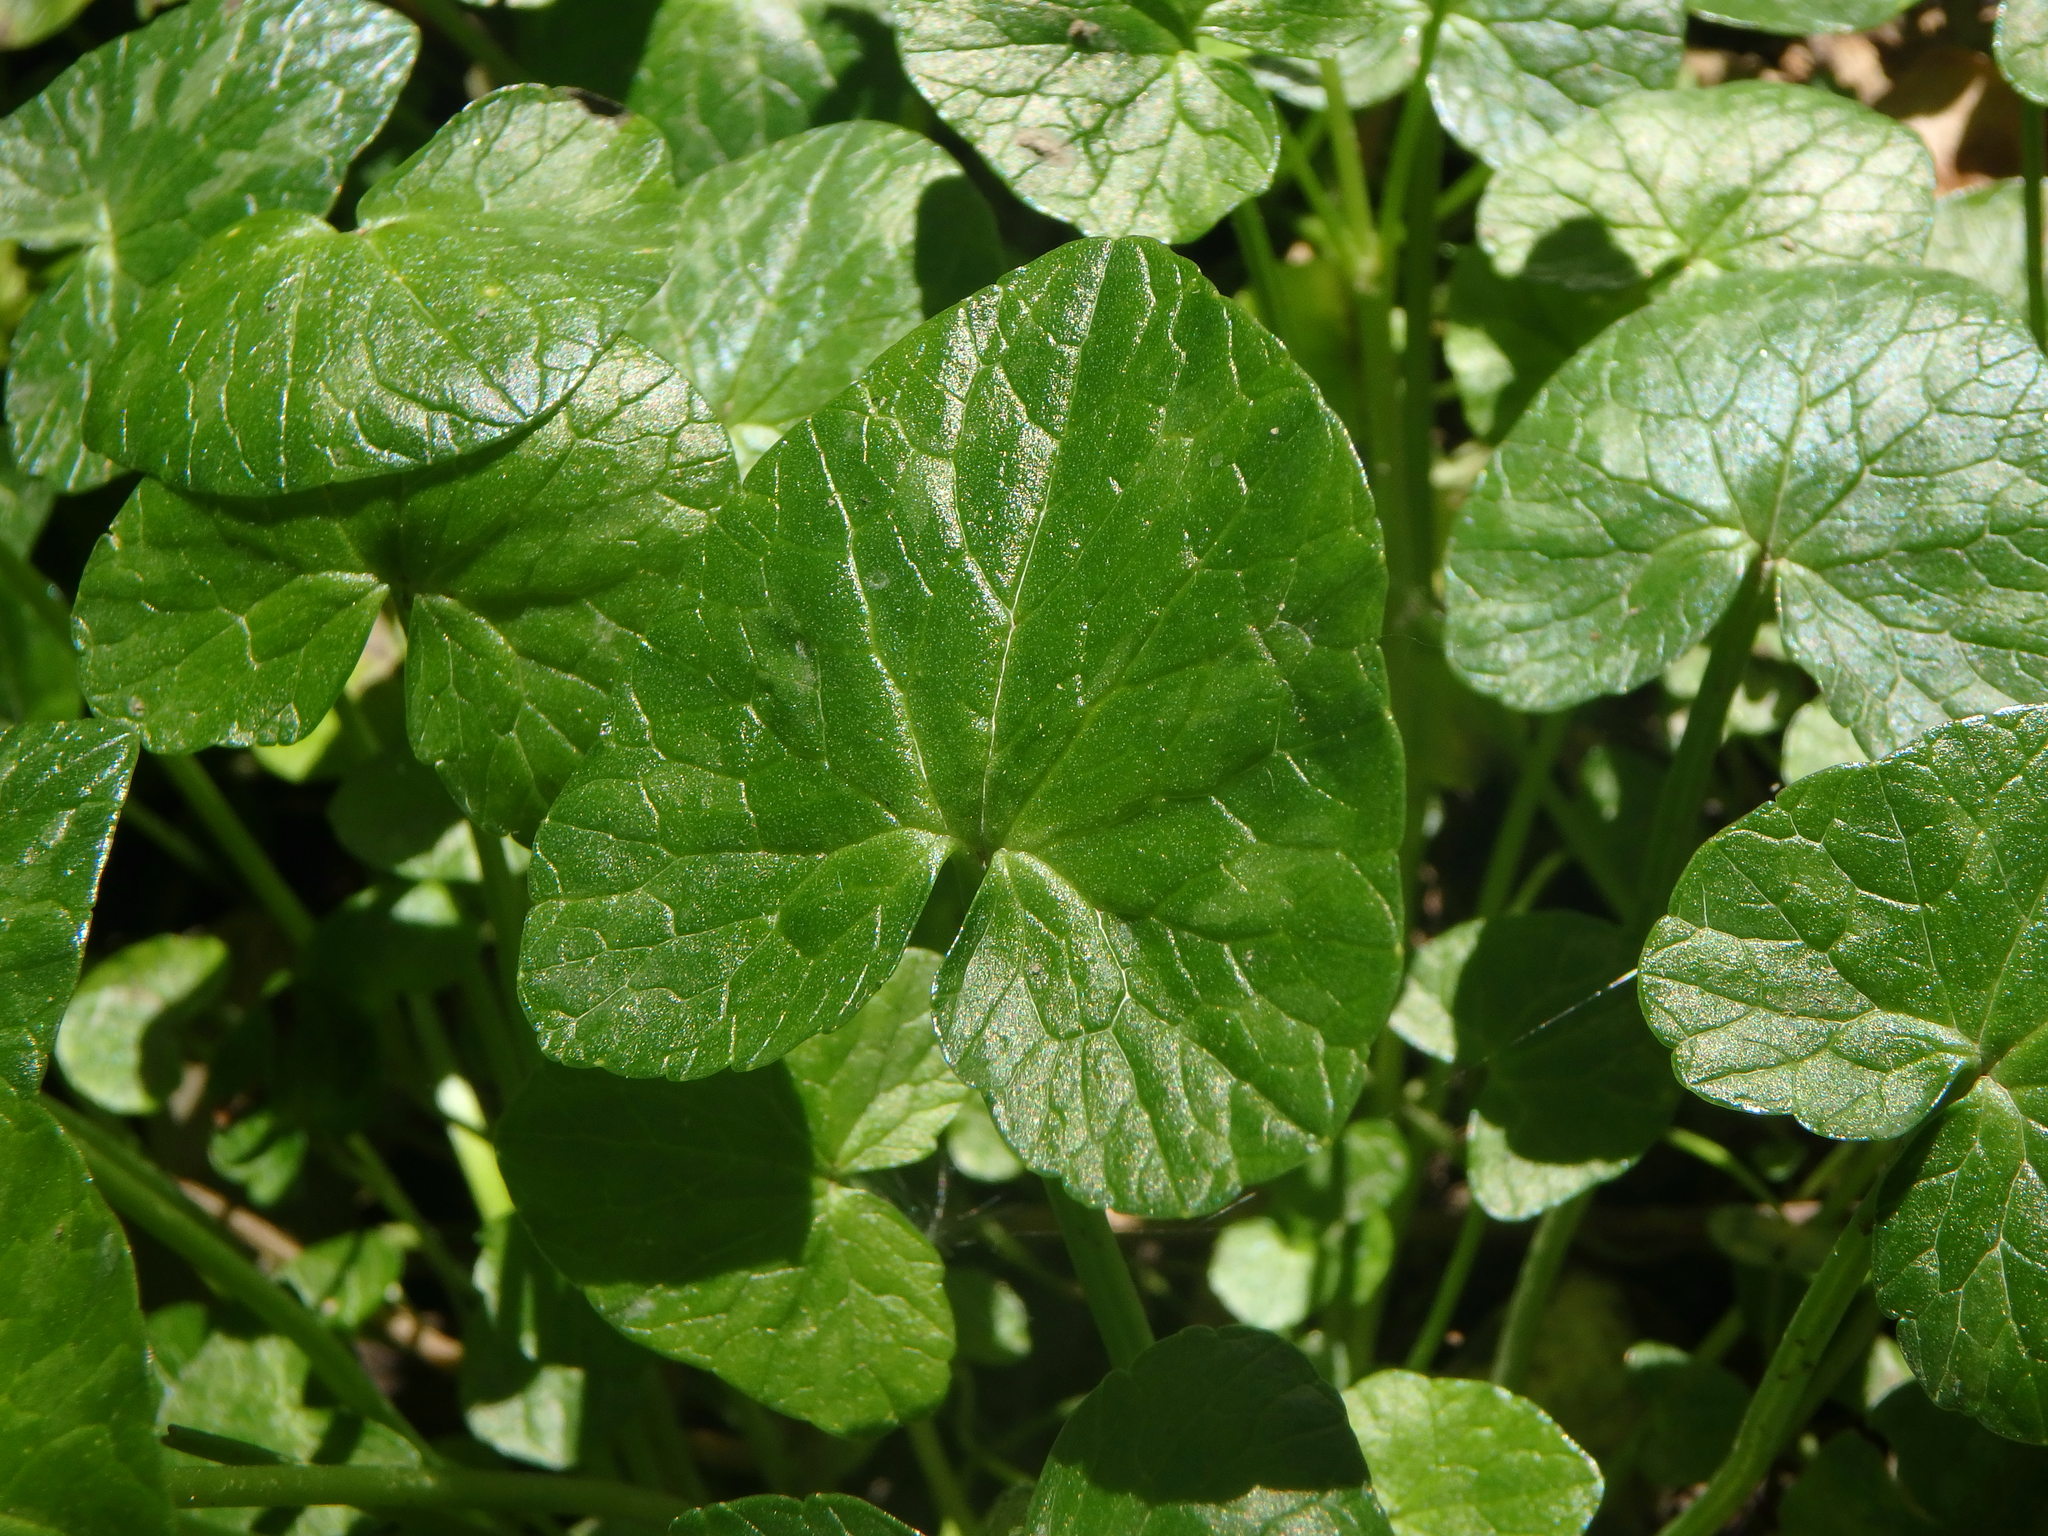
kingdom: Plantae
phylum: Tracheophyta
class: Magnoliopsida
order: Ranunculales
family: Ranunculaceae
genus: Ficaria
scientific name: Ficaria verna
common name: Lesser celandine
